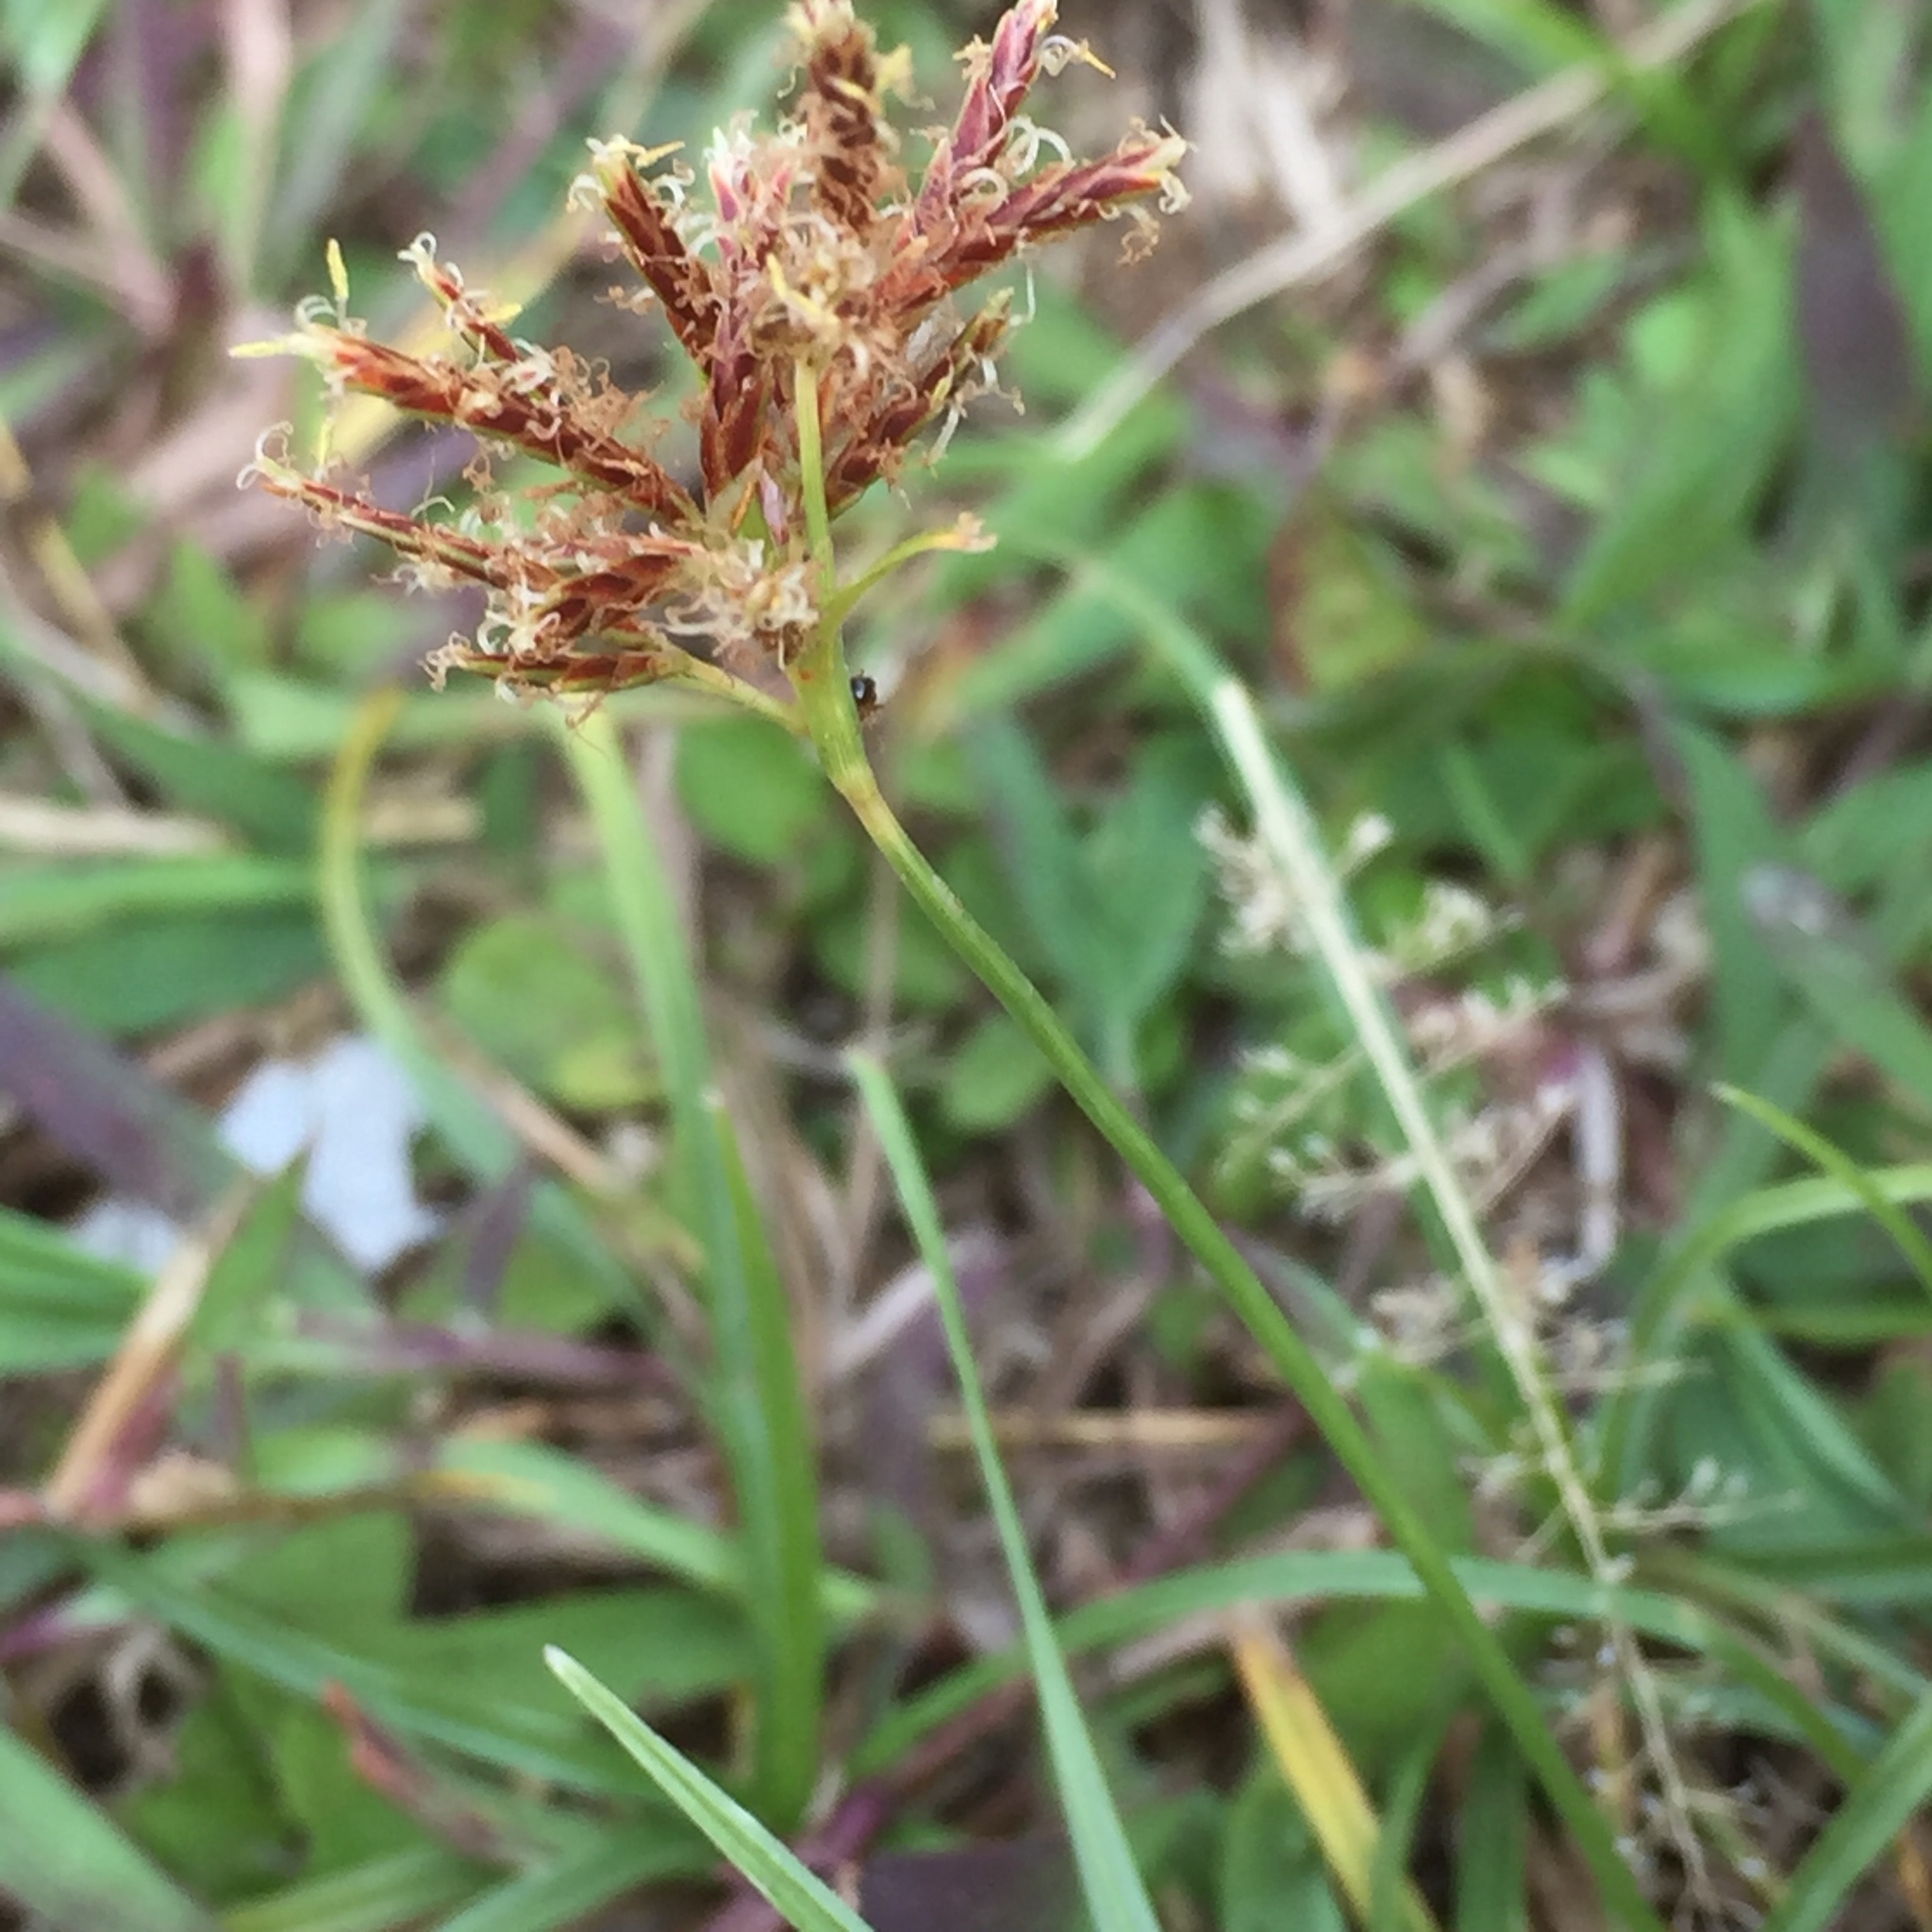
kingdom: Plantae
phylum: Tracheophyta
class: Liliopsida
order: Poales
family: Cyperaceae
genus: Cyperus
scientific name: Cyperus rotundus
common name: Nutgrass
